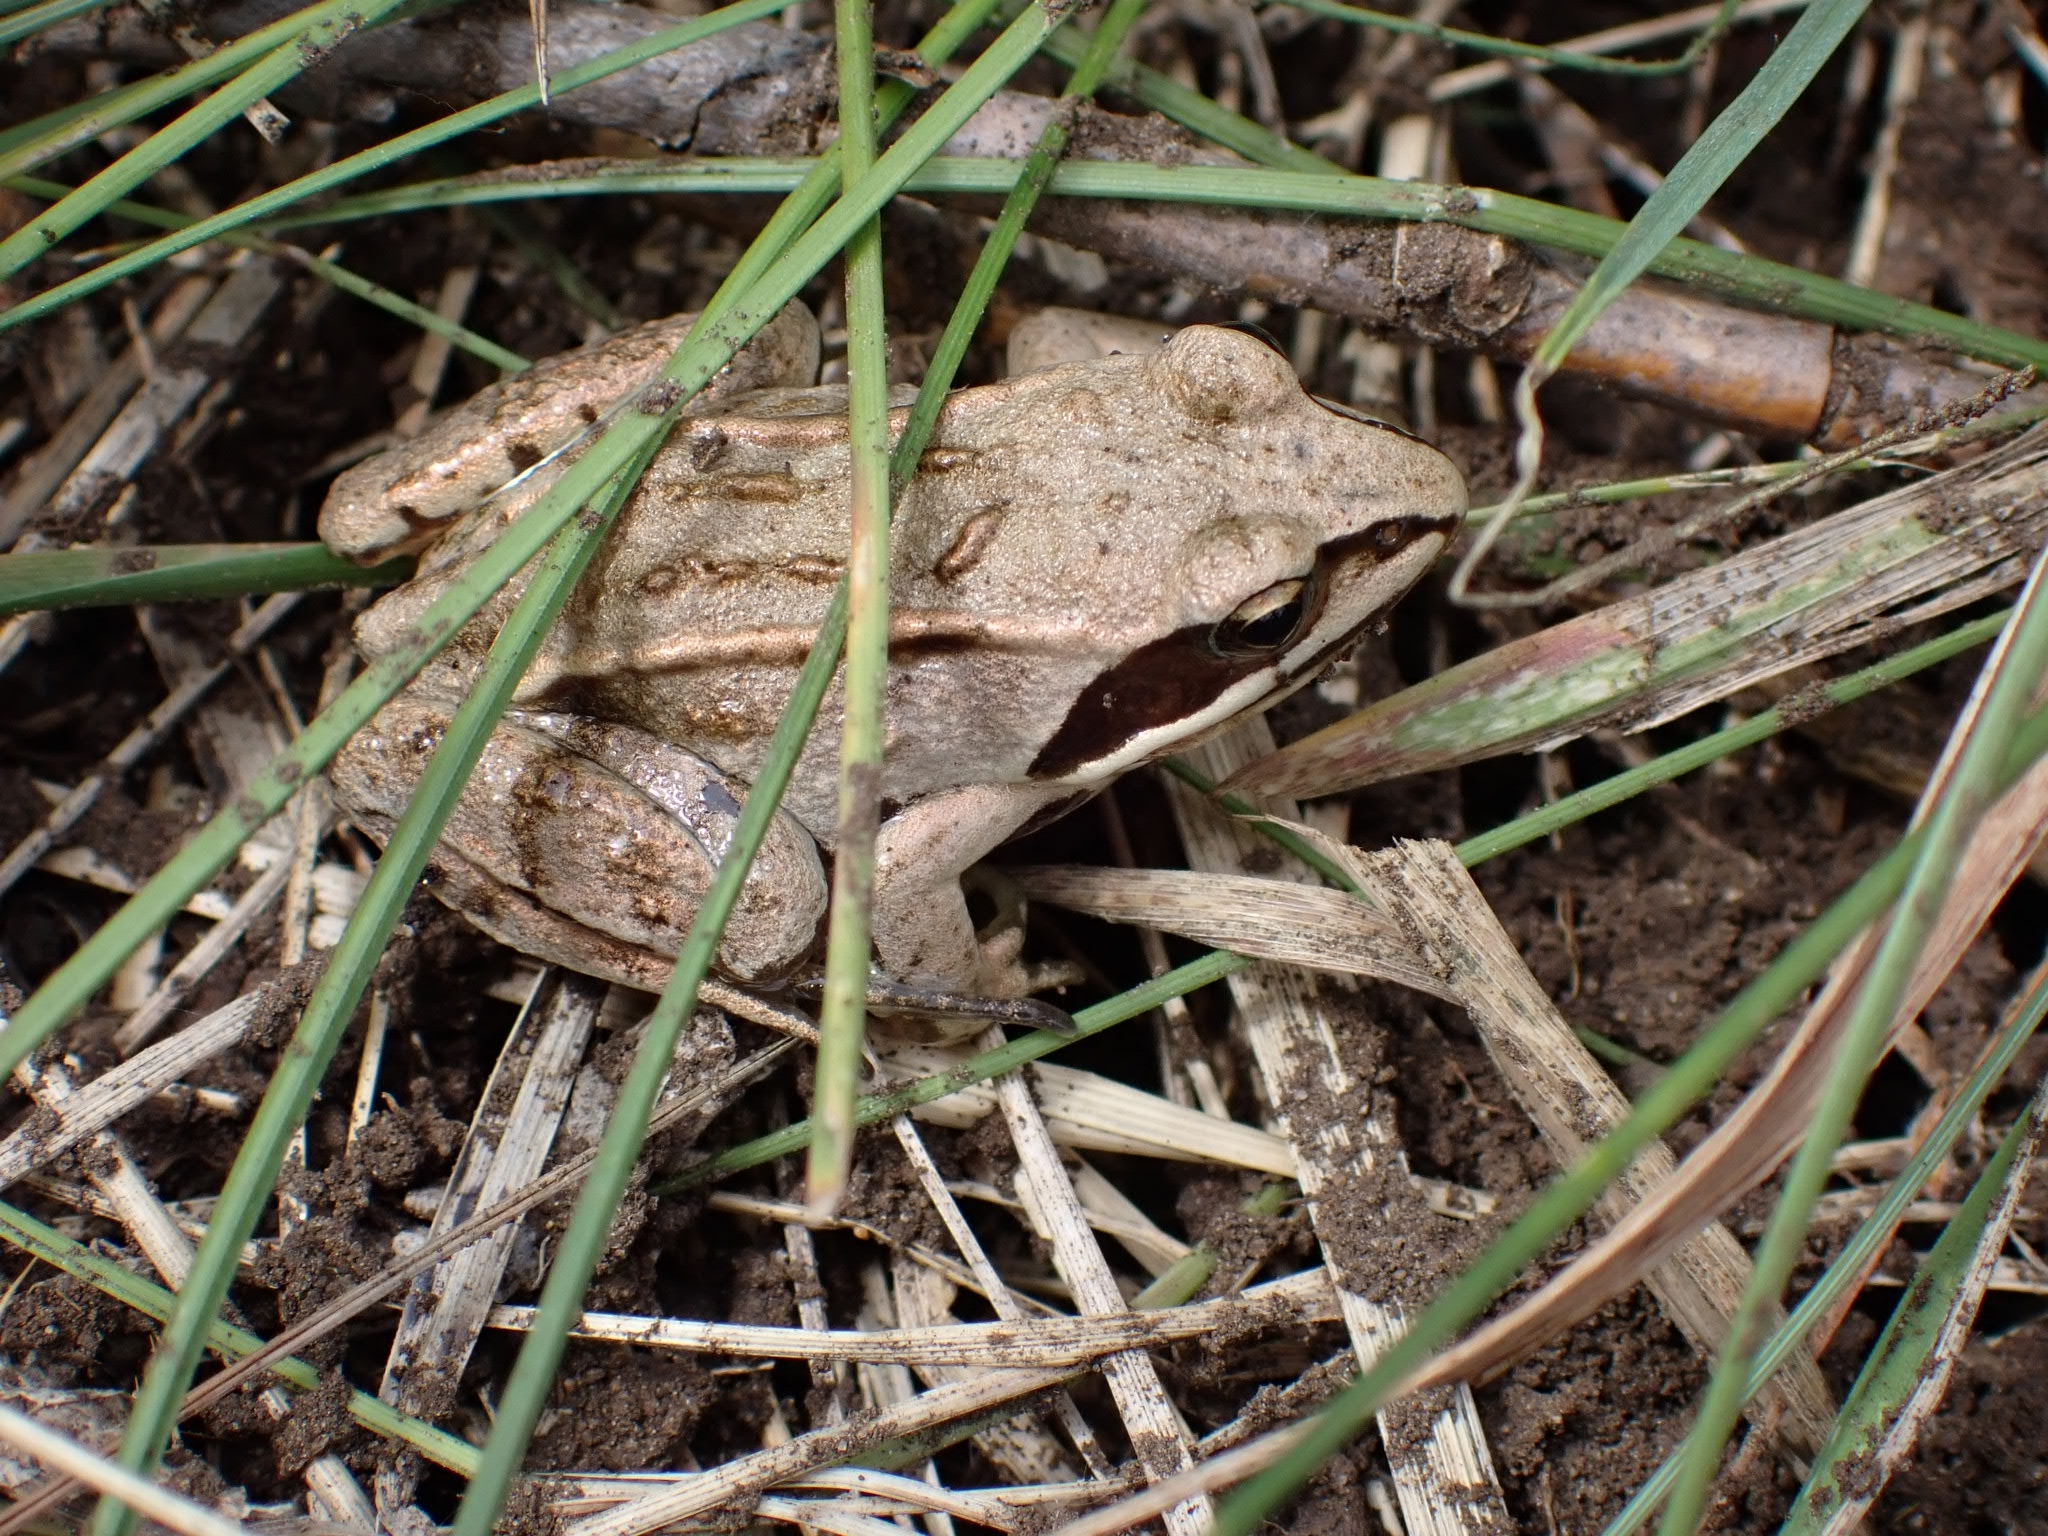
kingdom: Animalia
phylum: Chordata
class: Amphibia
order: Anura
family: Ranidae
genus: Rana
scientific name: Rana arvalis
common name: Moor frog
